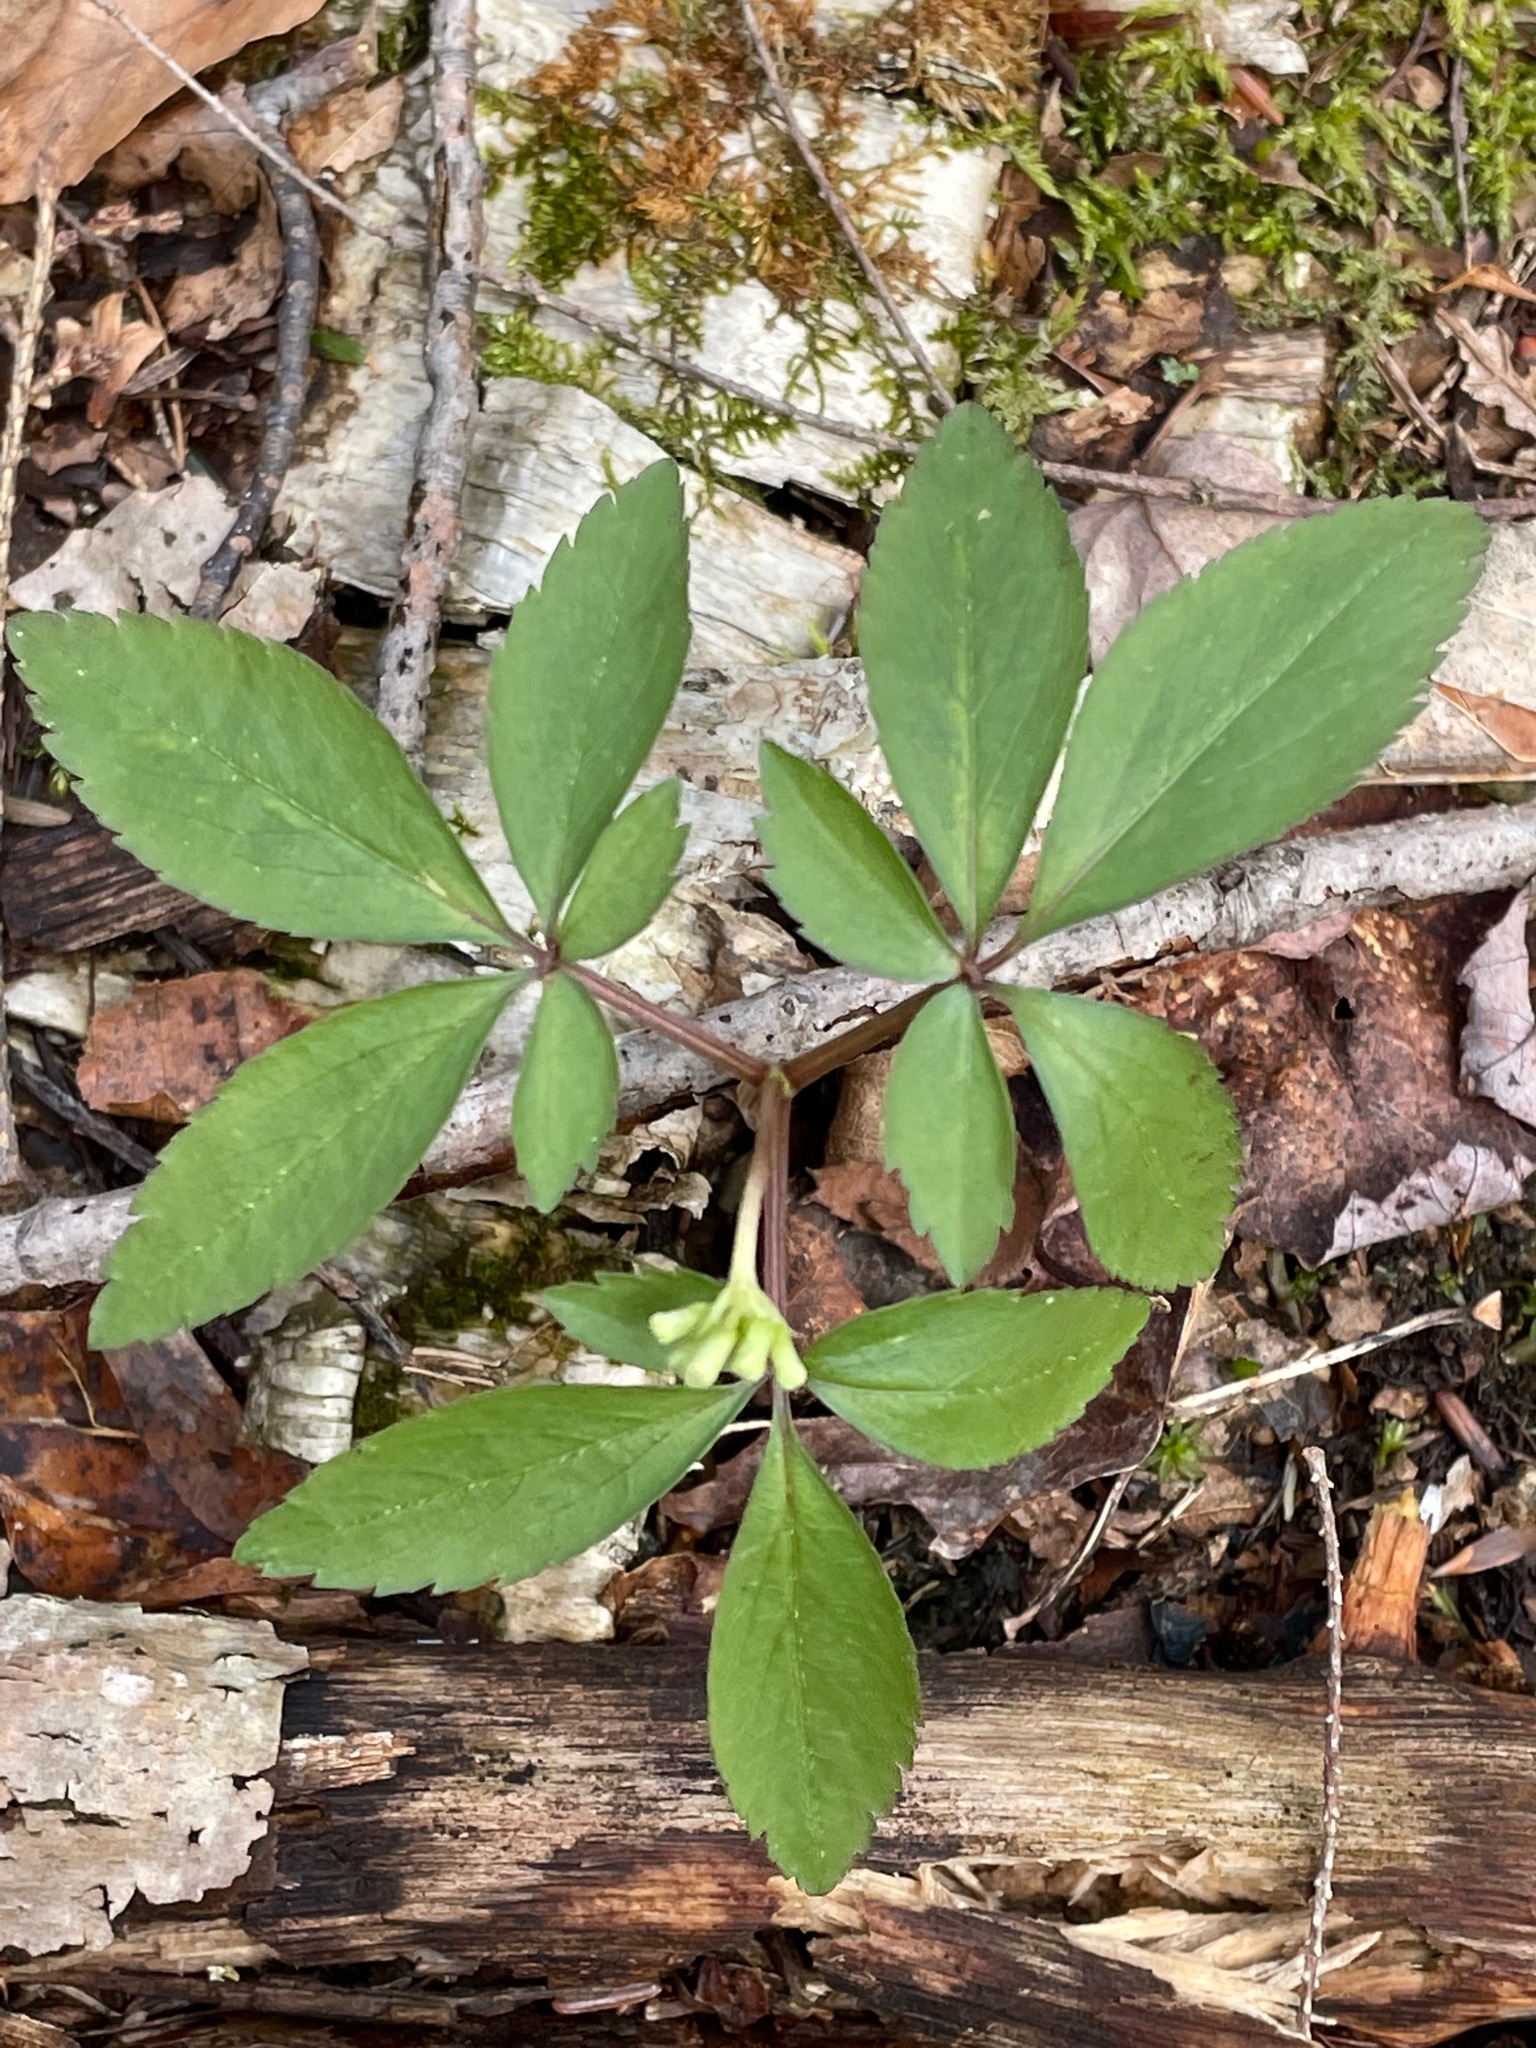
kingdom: Plantae
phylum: Tracheophyta
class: Magnoliopsida
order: Apiales
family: Araliaceae
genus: Panax
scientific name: Panax trifolius
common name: Dwarf ginseng
